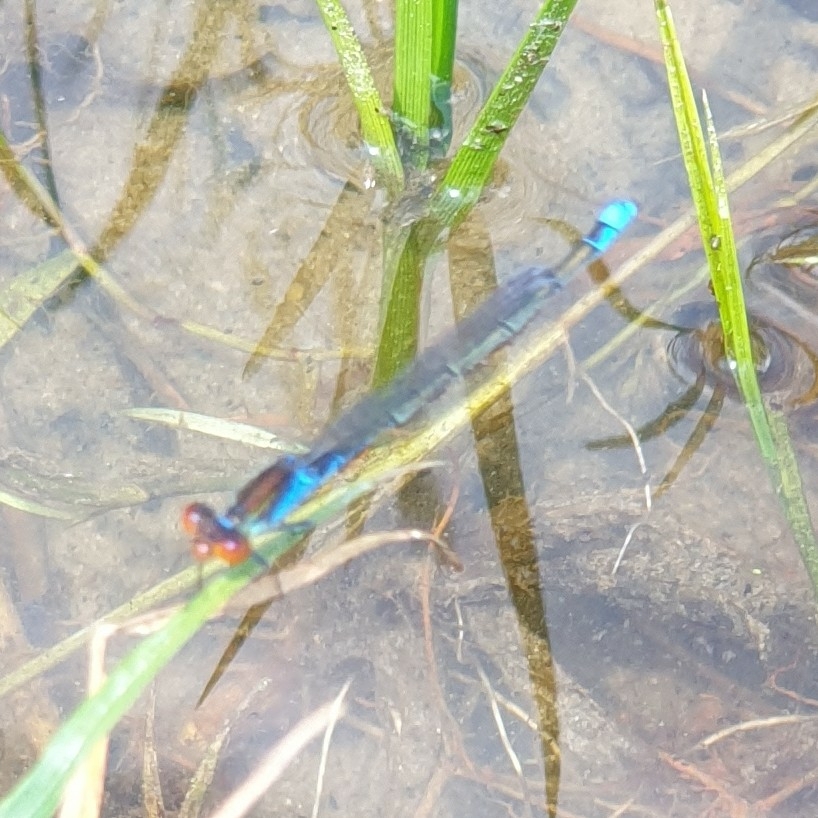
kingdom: Animalia
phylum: Arthropoda
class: Insecta
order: Odonata
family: Coenagrionidae
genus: Erythromma
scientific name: Erythromma viridulum
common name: Small red-eyed damselfly
